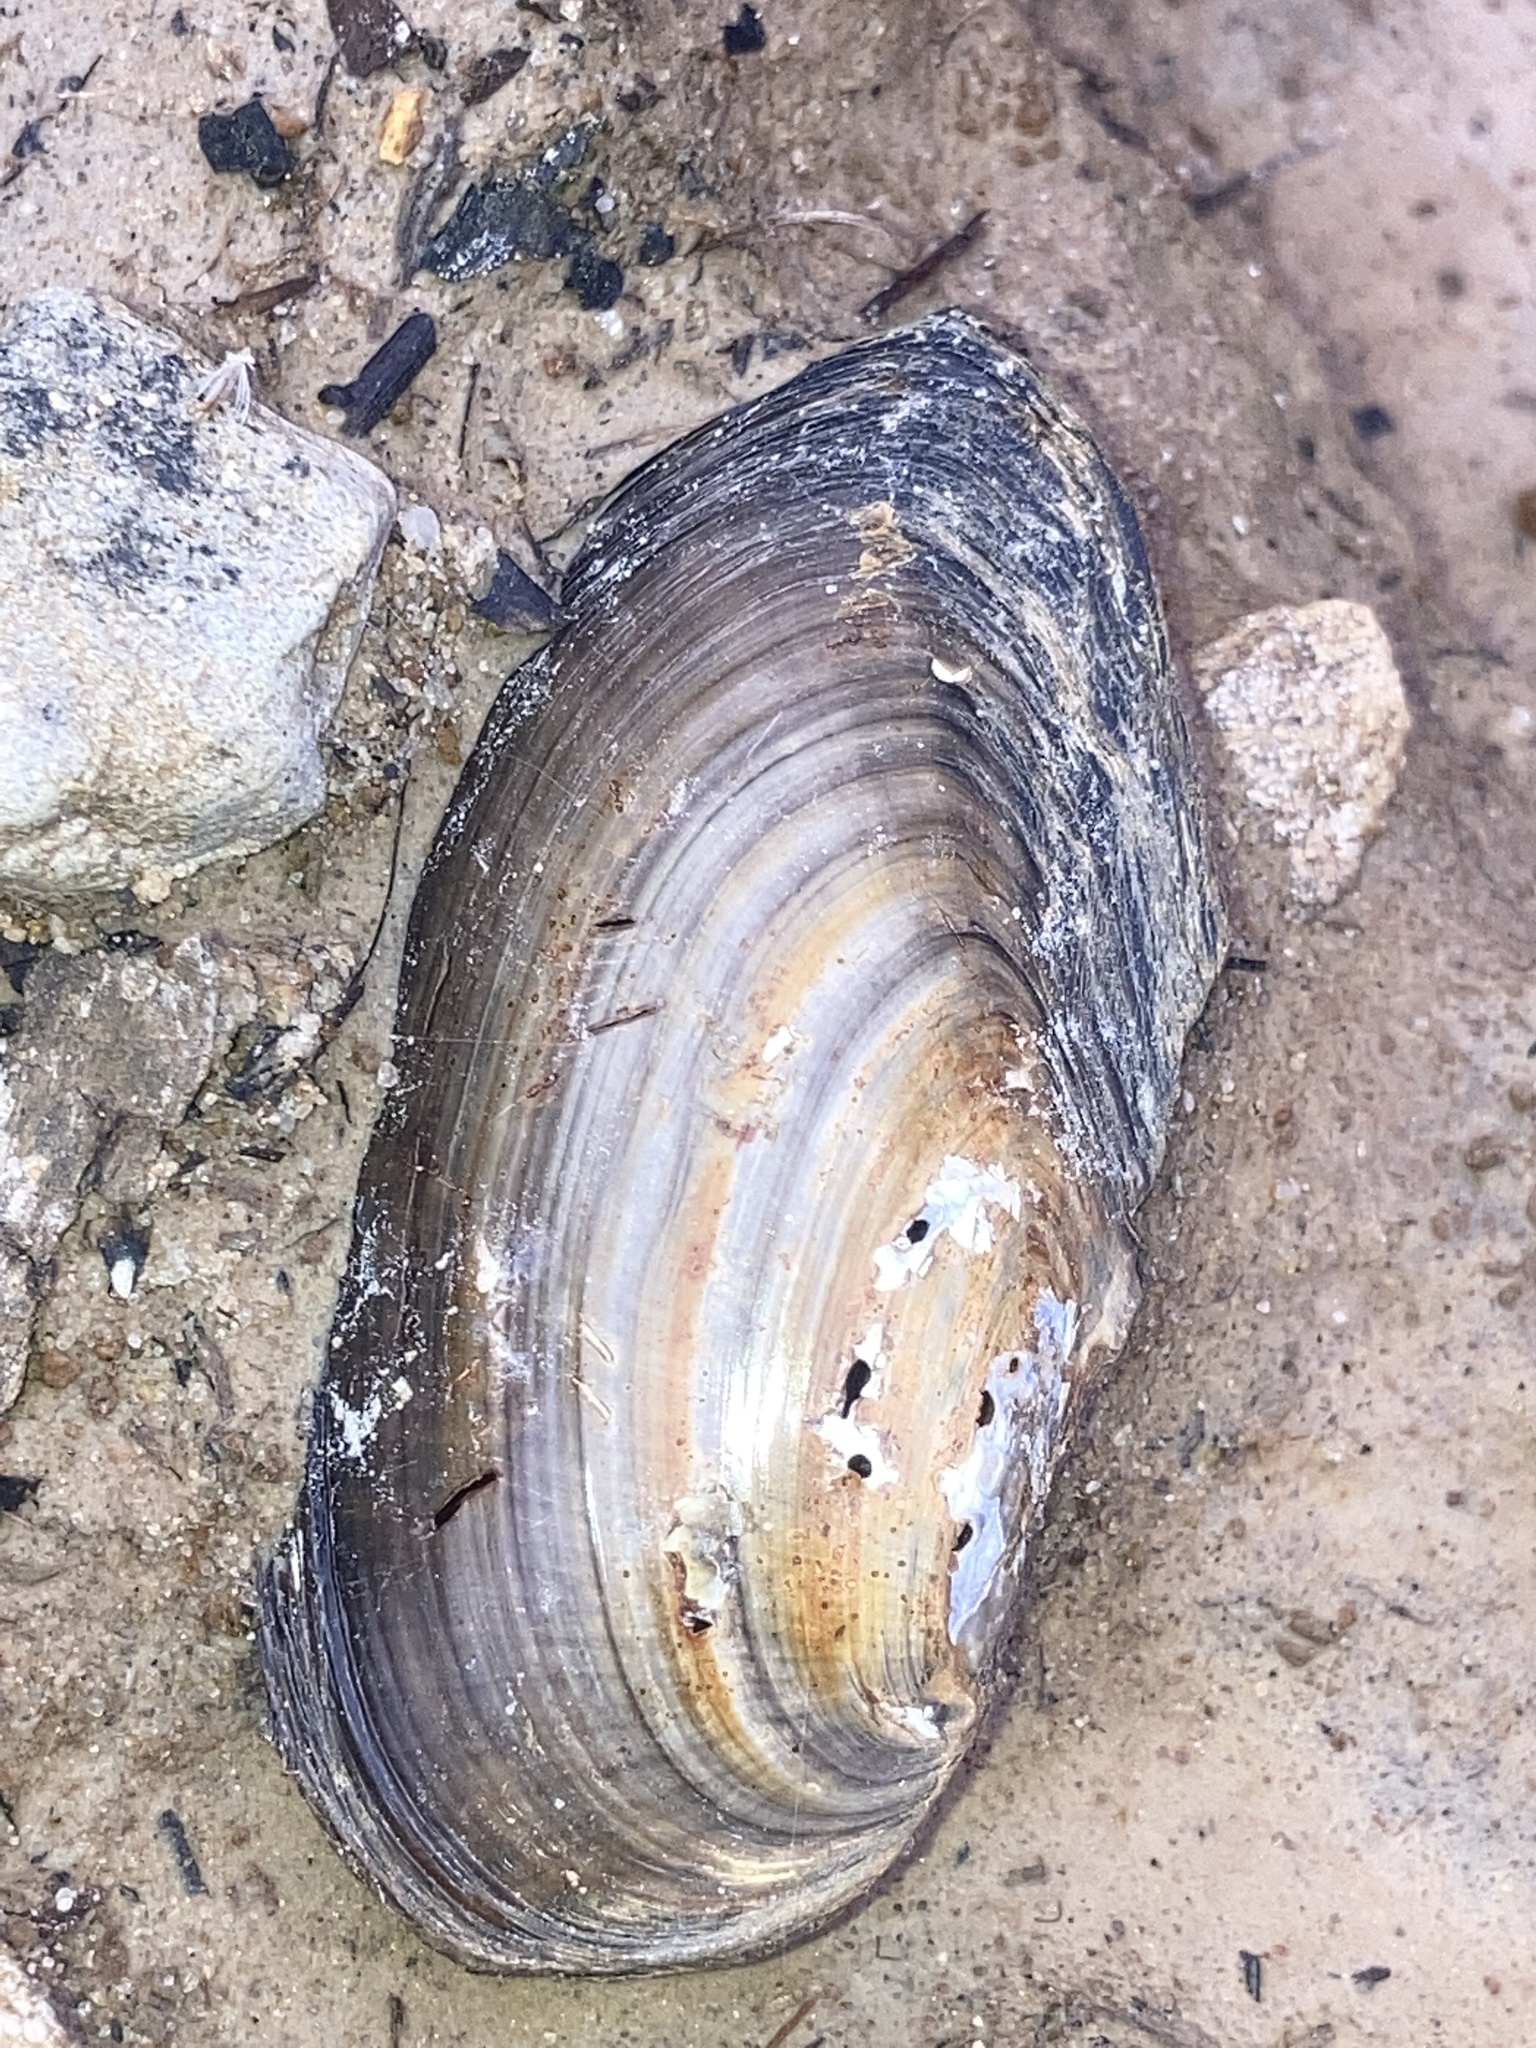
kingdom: Animalia
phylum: Mollusca
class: Bivalvia
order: Unionida
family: Unionidae
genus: Utterbackia
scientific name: Utterbackia imbecillis
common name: Paper pondshell
